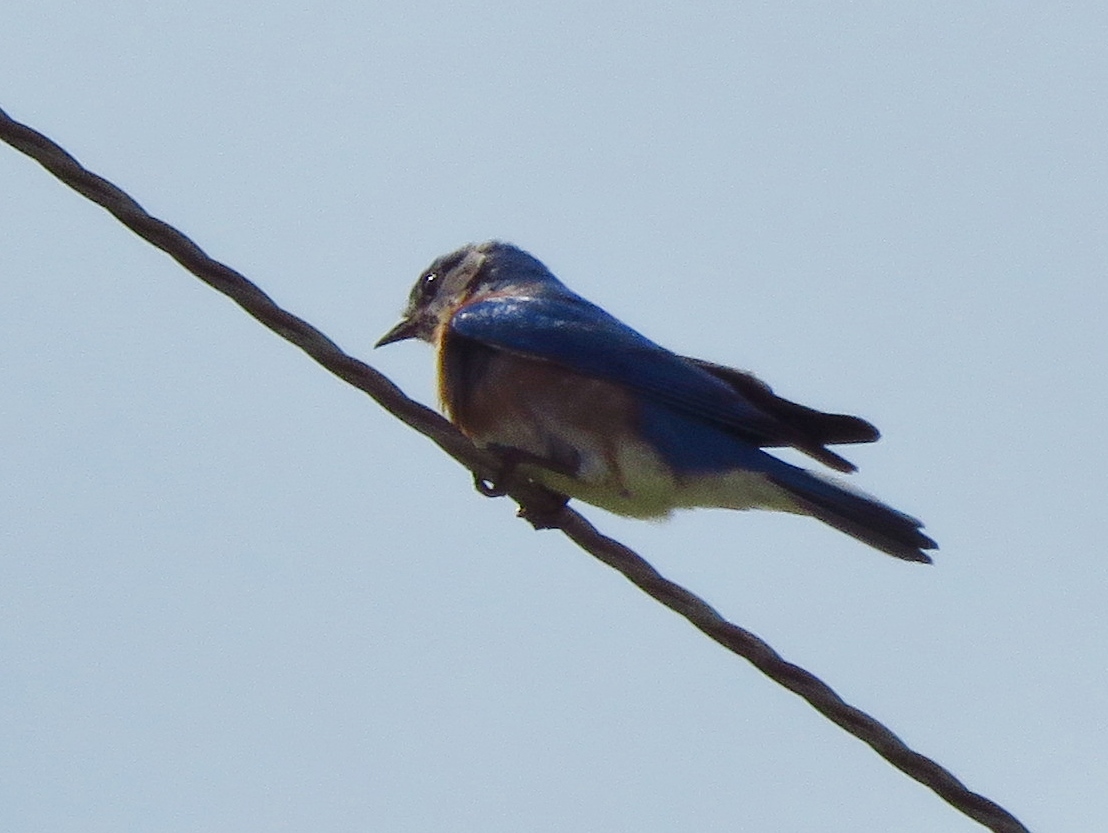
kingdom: Animalia
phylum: Chordata
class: Aves
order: Passeriformes
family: Turdidae
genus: Sialia
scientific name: Sialia sialis
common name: Eastern bluebird
